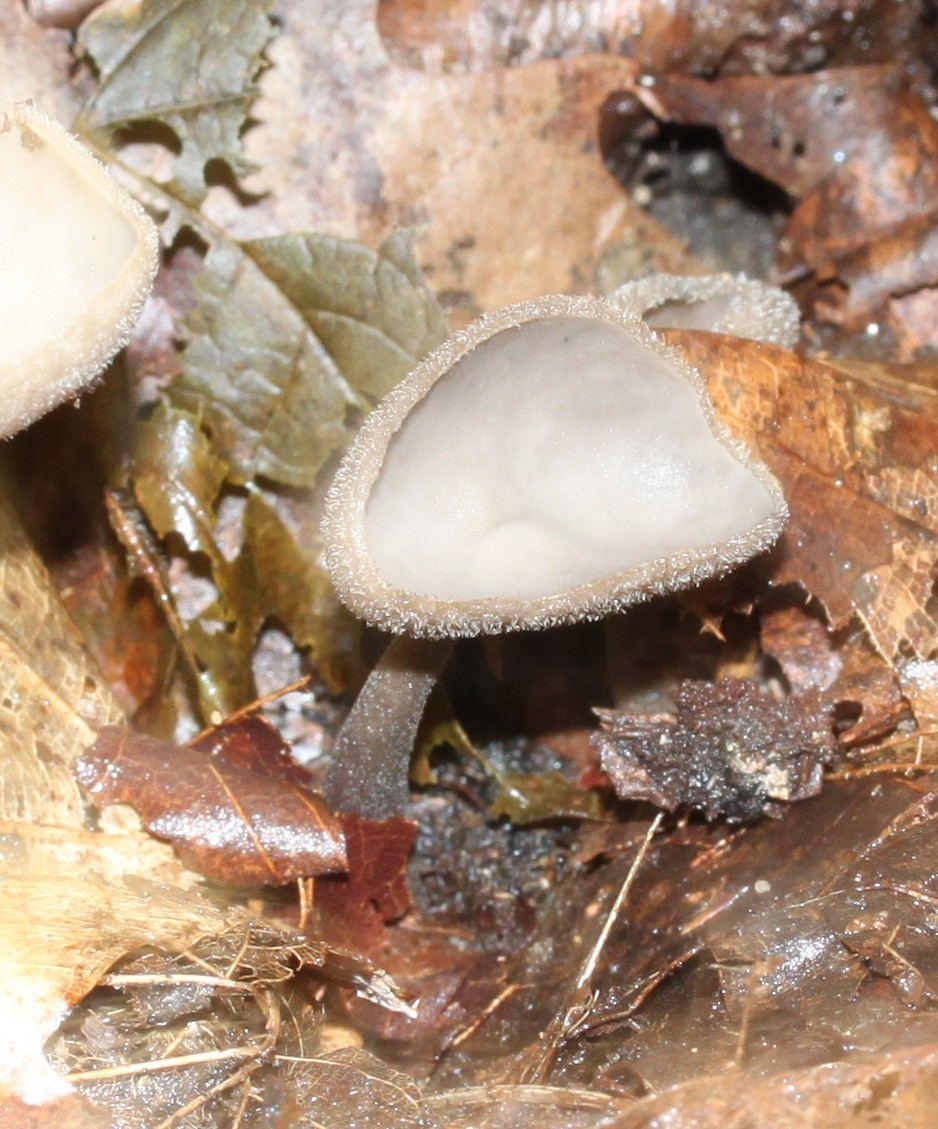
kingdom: Fungi
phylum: Ascomycota
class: Pezizomycetes
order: Pezizales
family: Helvellaceae
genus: Helvella
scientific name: Helvella macropus
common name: Felt saddle
